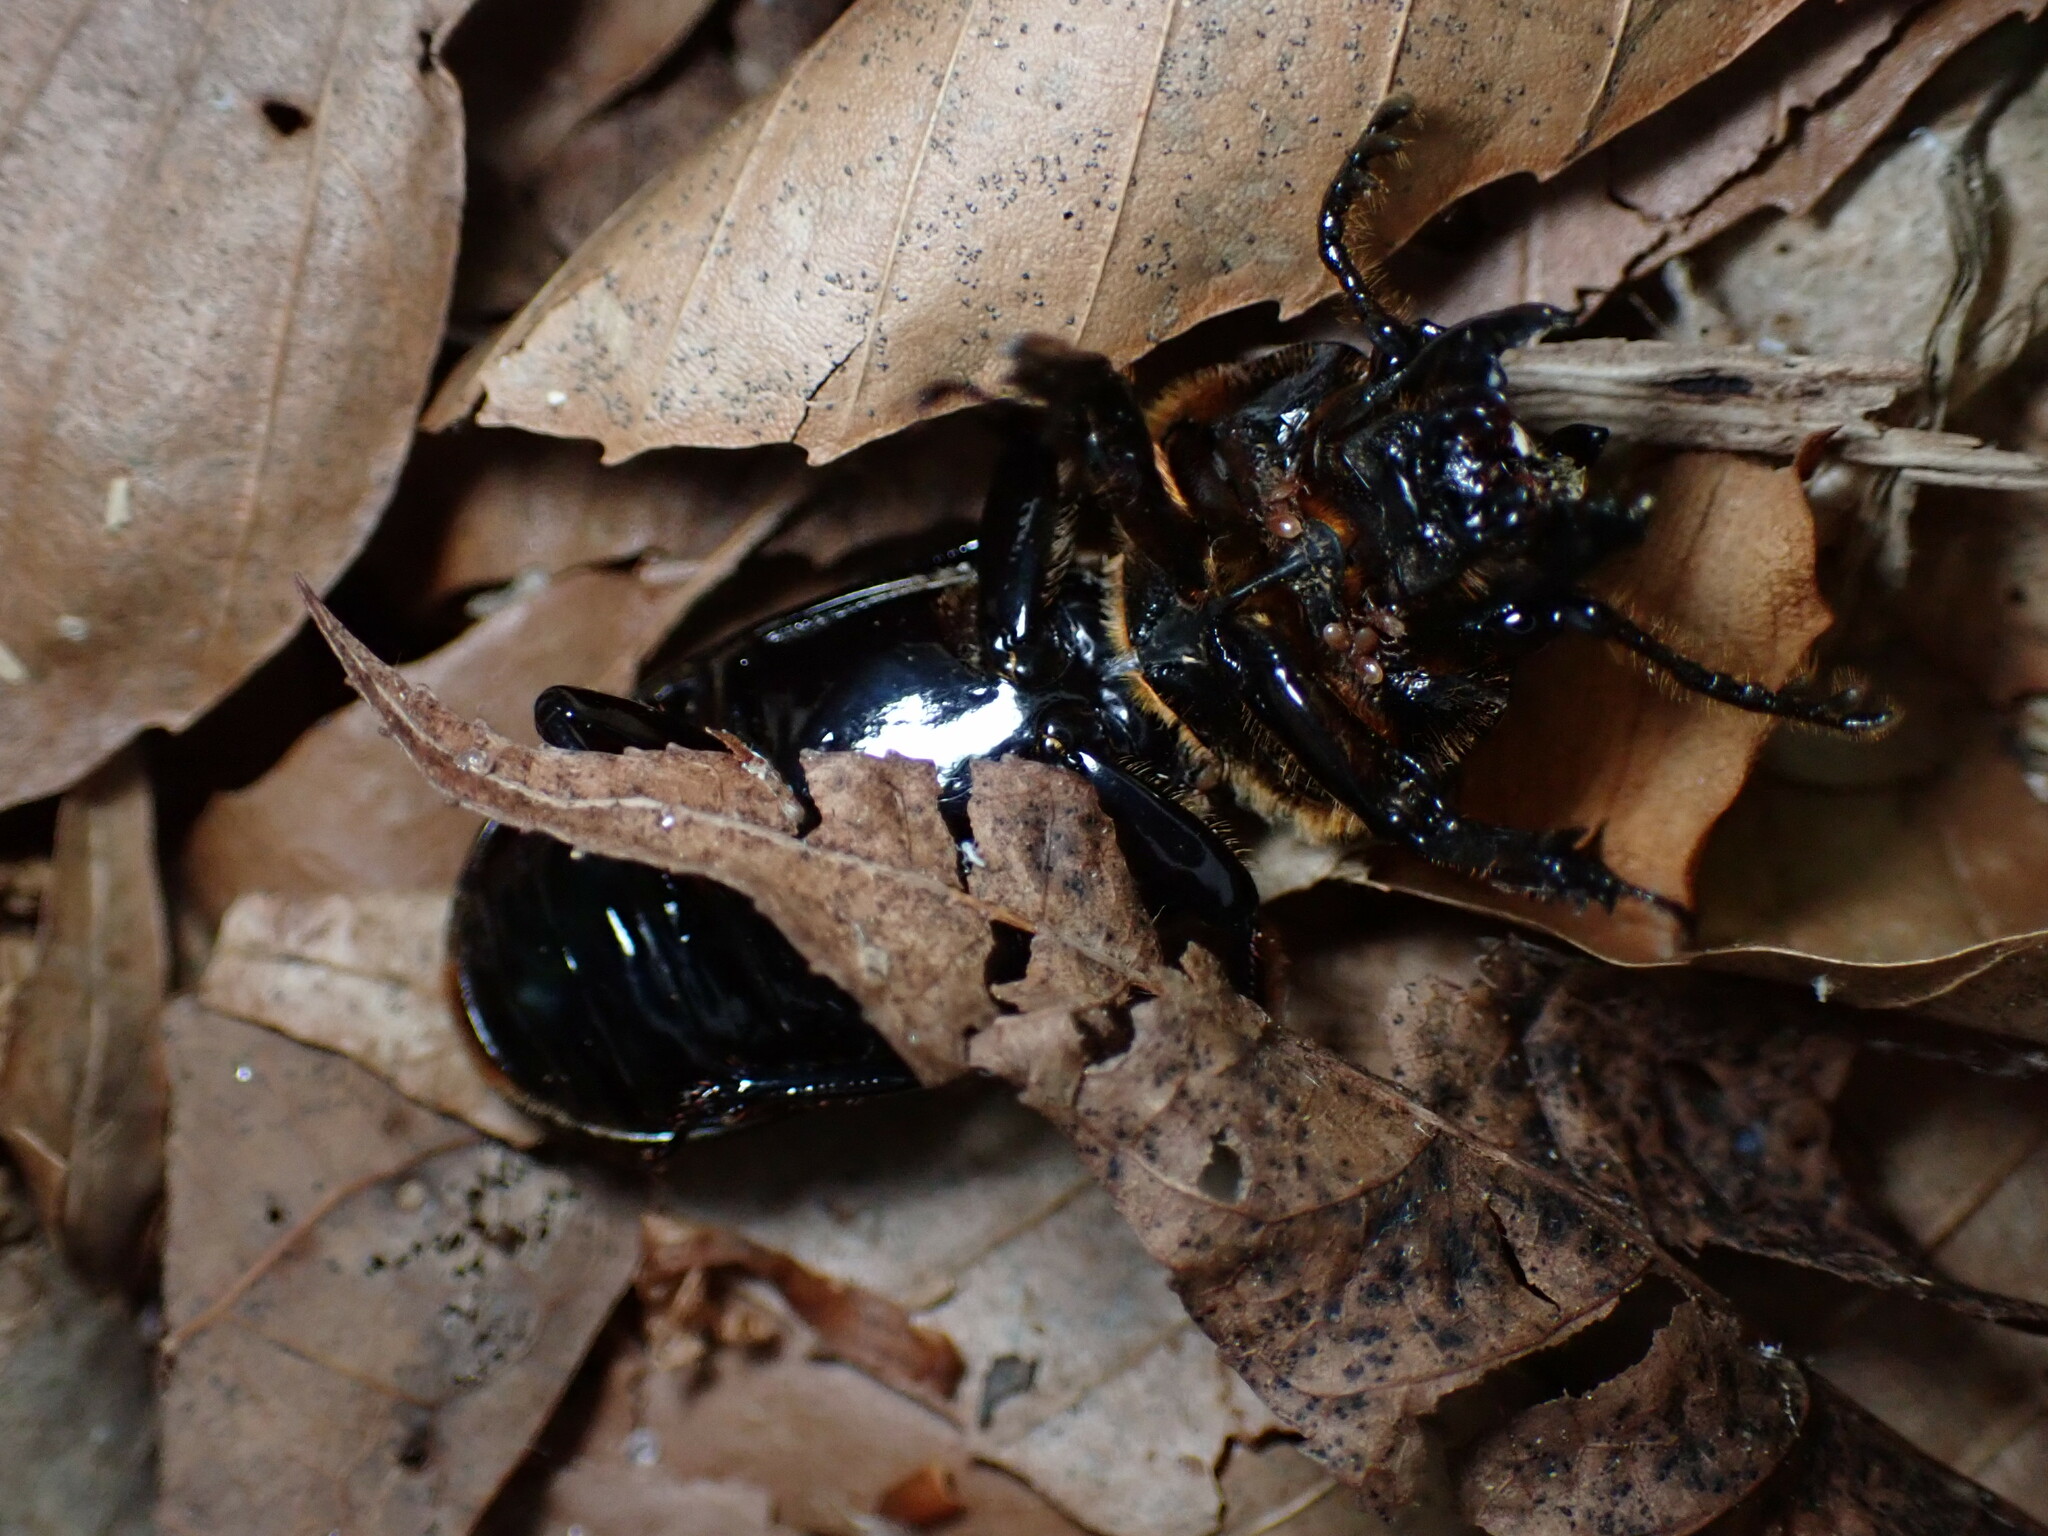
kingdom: Animalia
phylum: Arthropoda
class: Insecta
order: Coleoptera
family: Passalidae
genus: Odontotaenius
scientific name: Odontotaenius disjunctus
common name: Patent leather beetle
